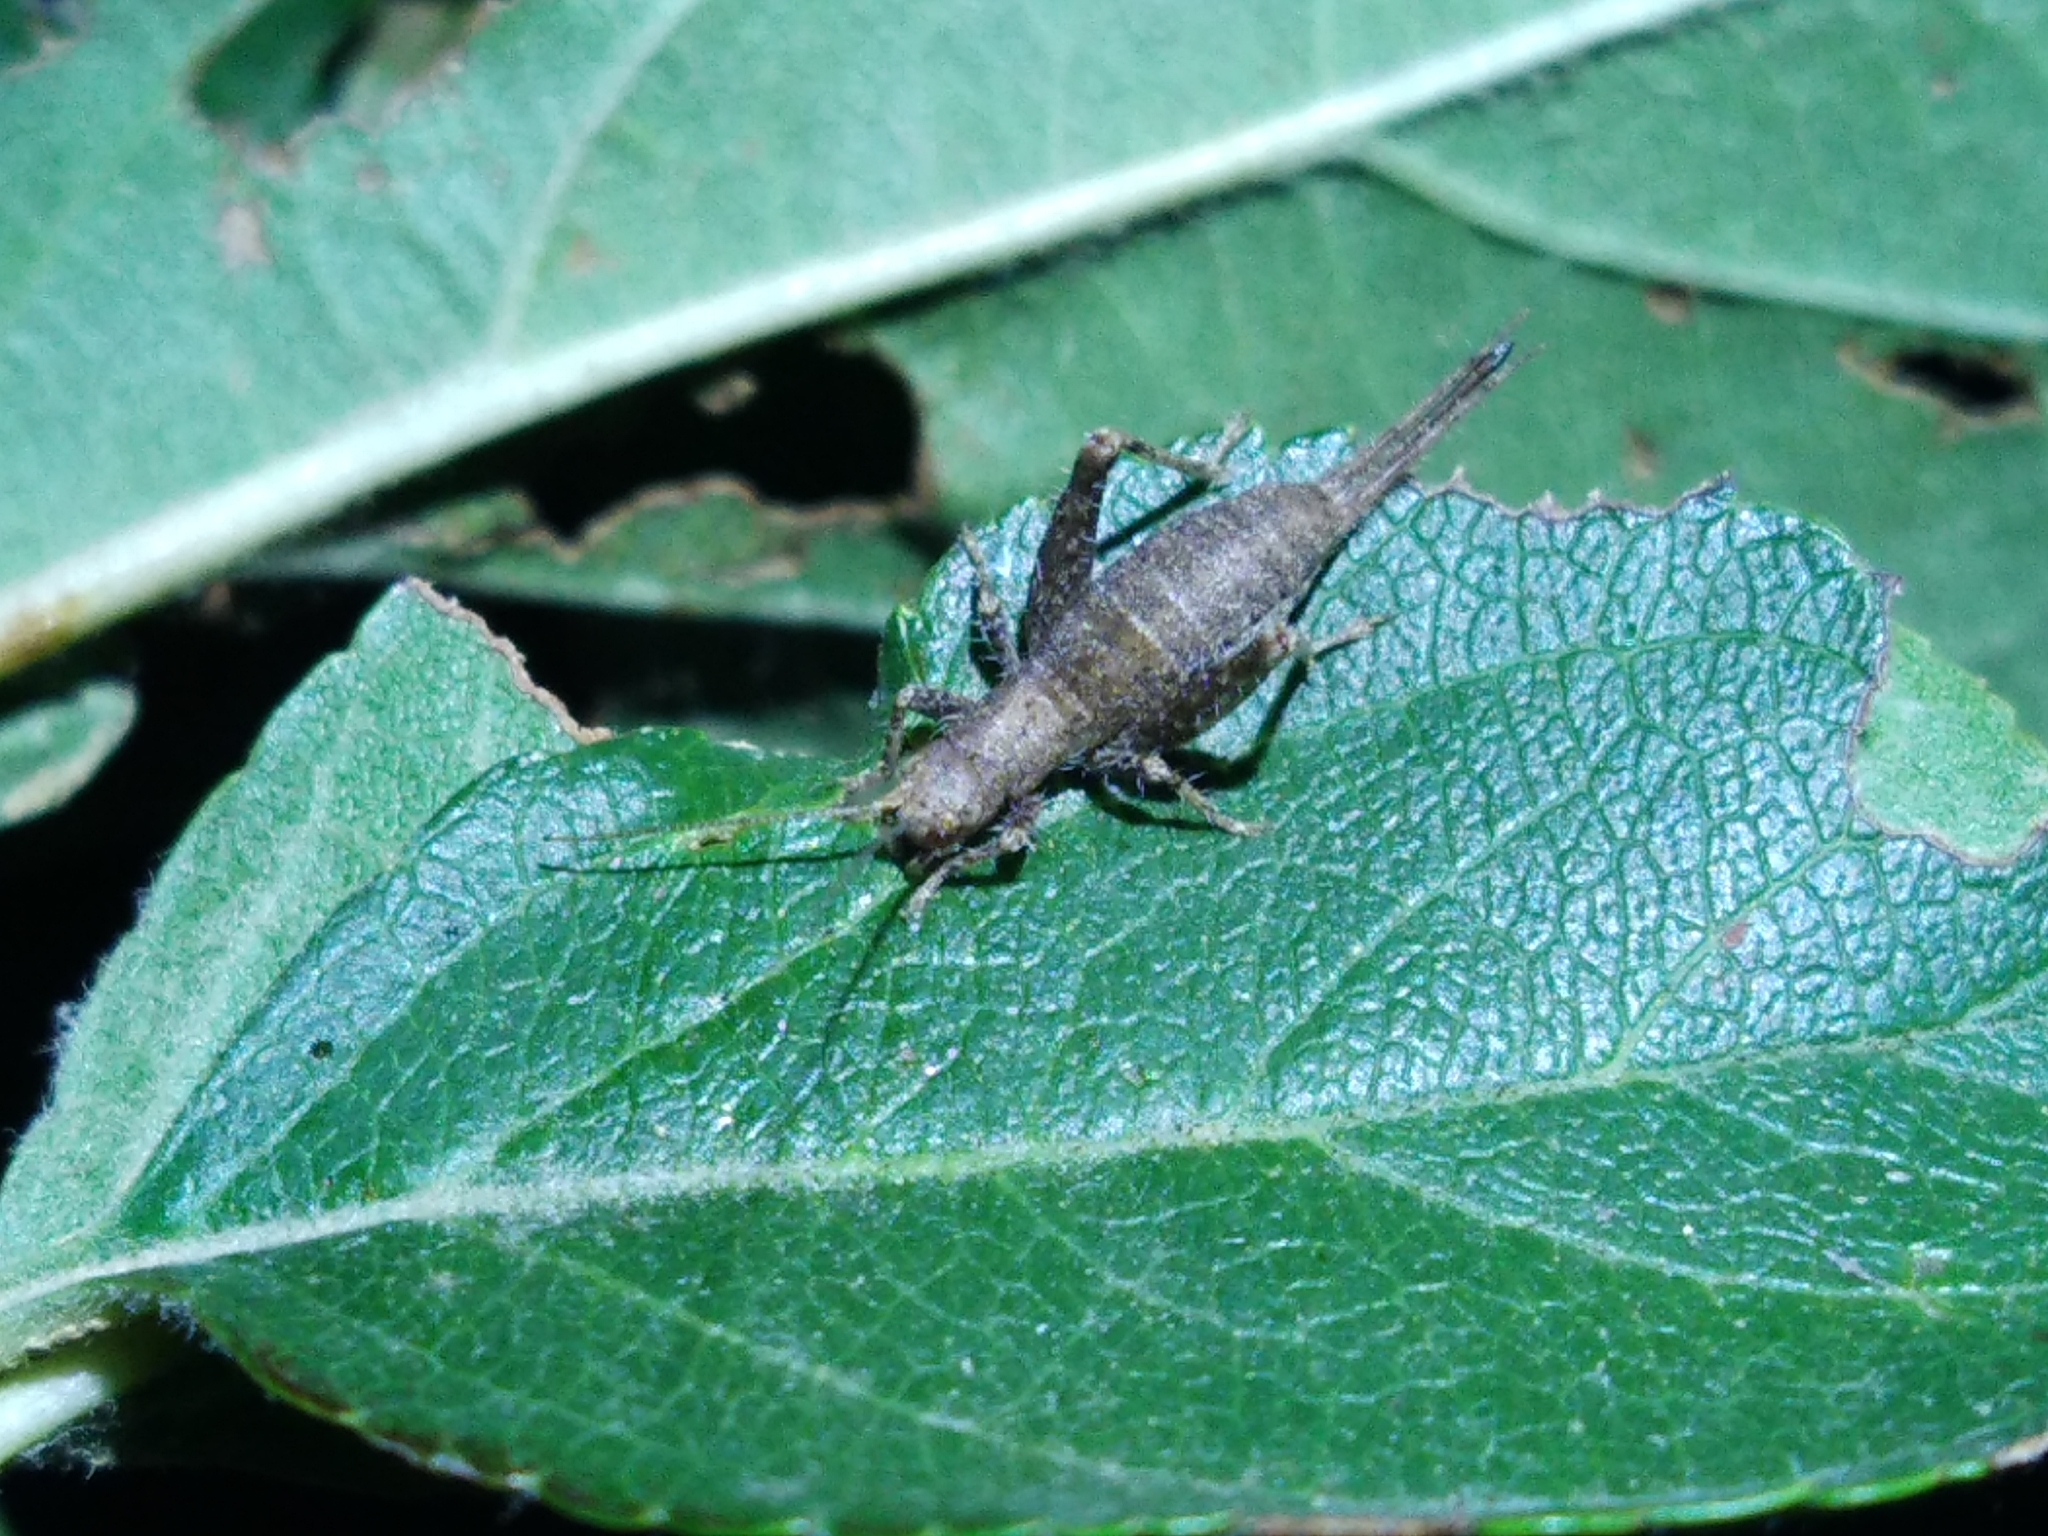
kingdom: Animalia
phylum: Arthropoda
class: Insecta
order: Orthoptera
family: Mogoplistidae
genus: Arachnocephalus
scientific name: Arachnocephalus vestitus
